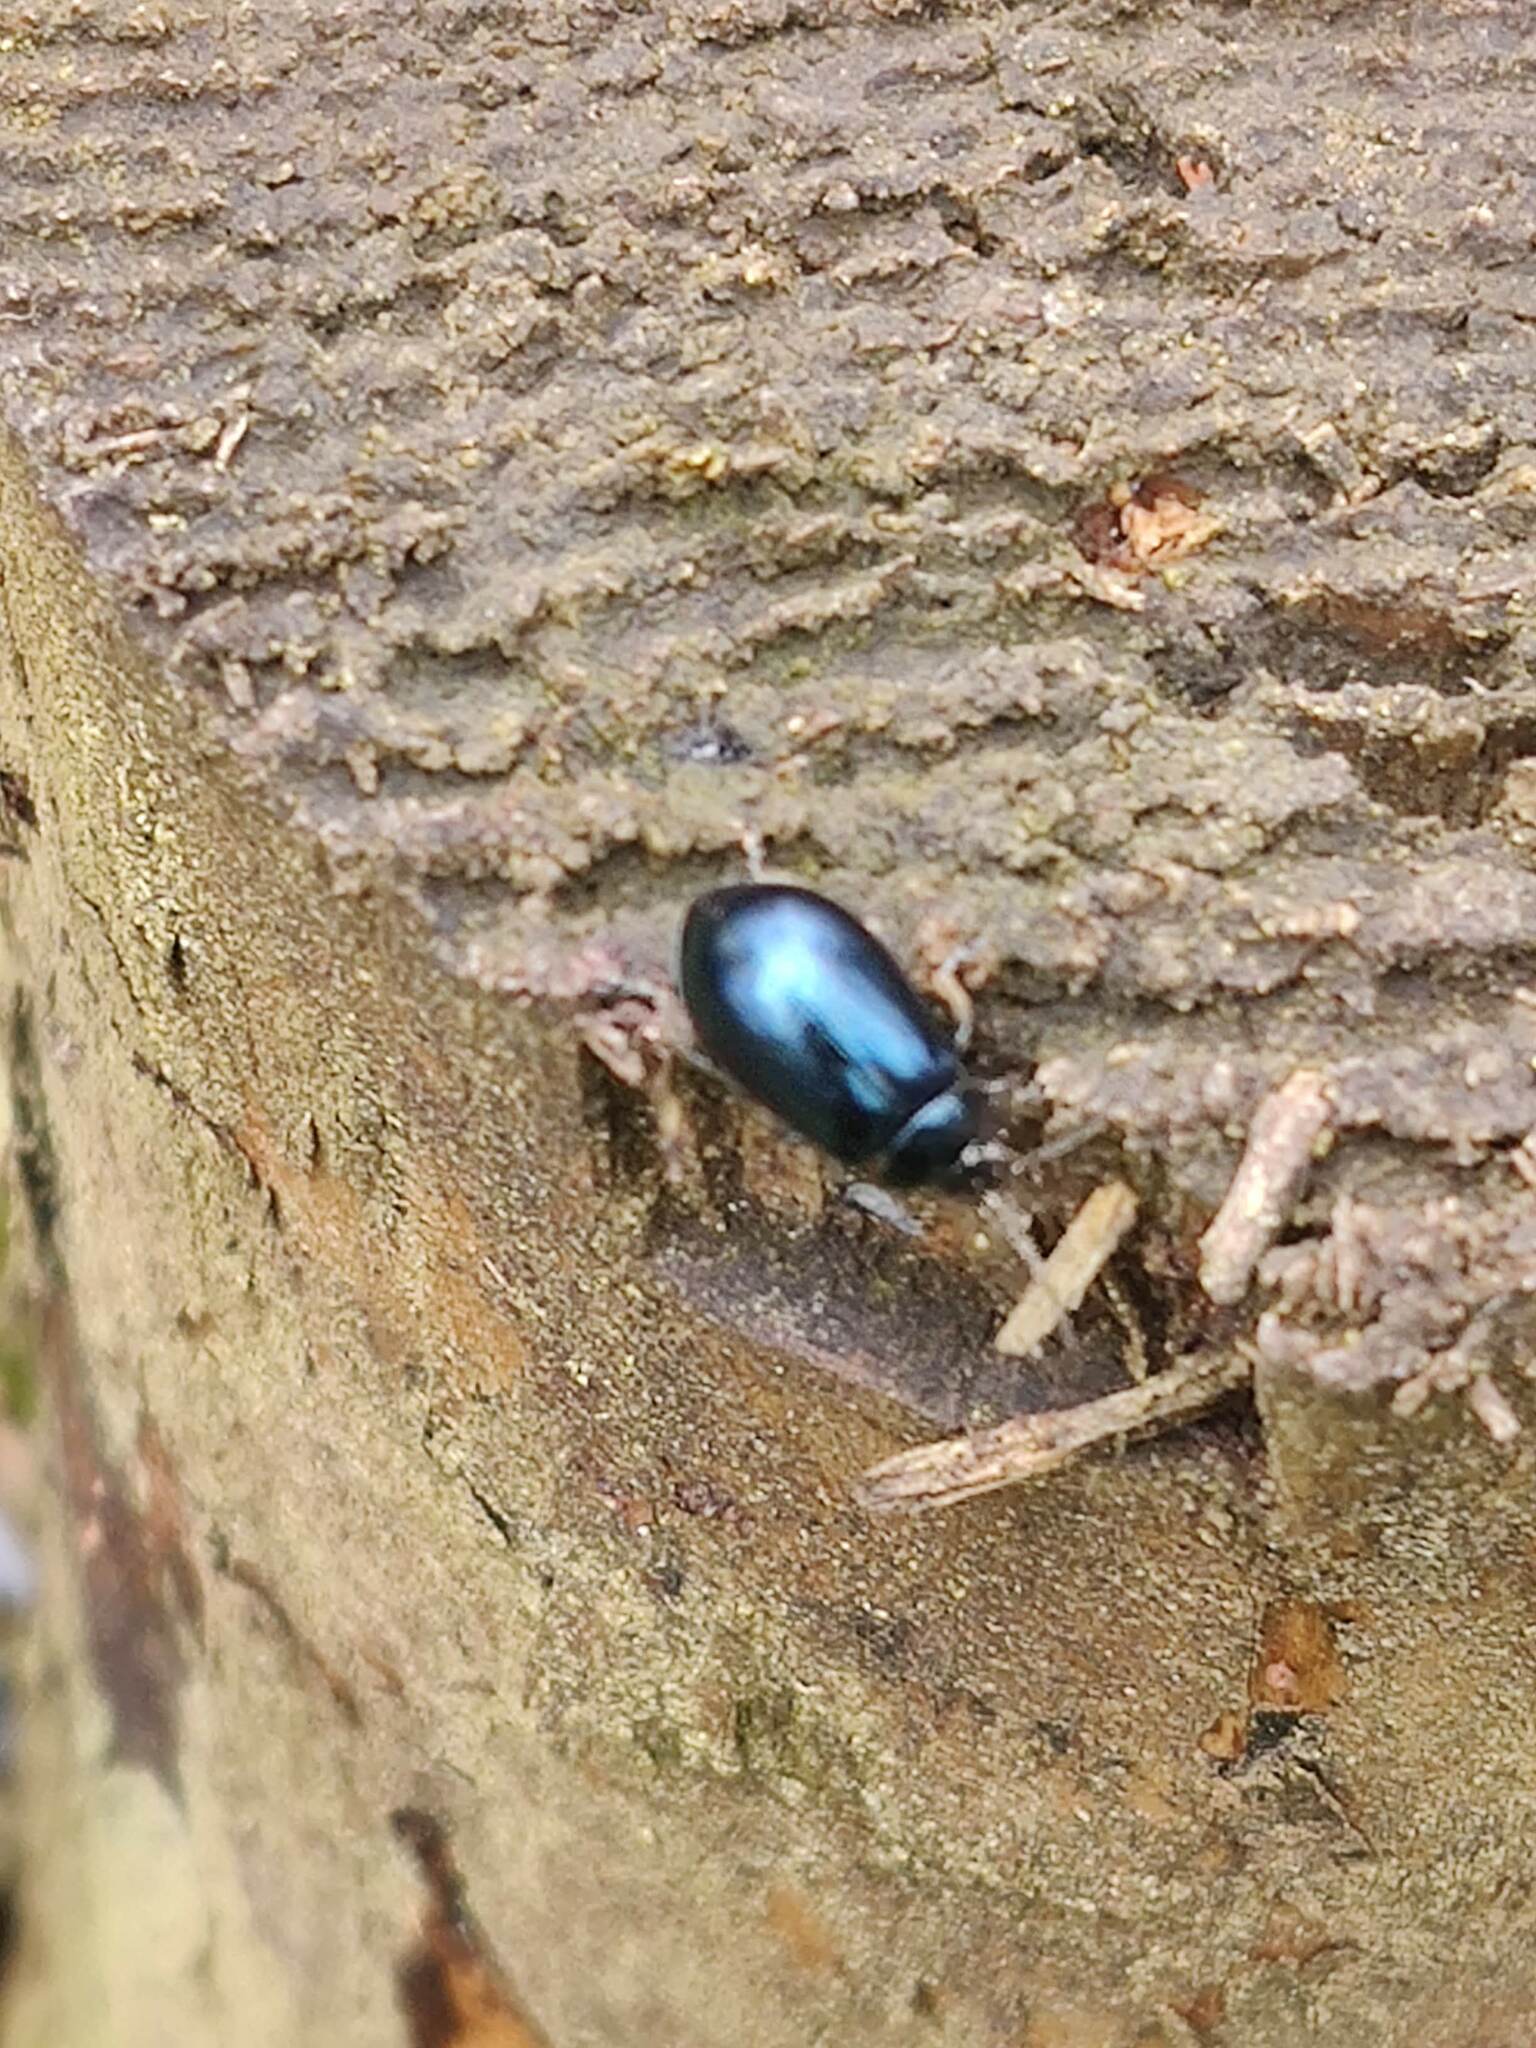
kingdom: Animalia
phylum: Arthropoda
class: Insecta
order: Coleoptera
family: Chrysomelidae
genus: Agelastica
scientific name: Agelastica alni
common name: Alder leaf beetle
